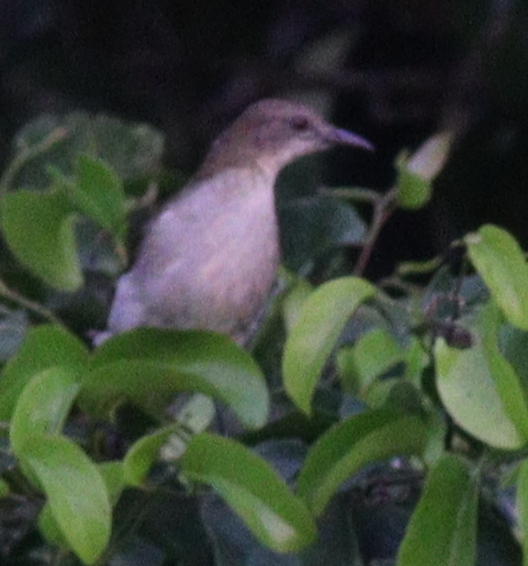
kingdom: Animalia
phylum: Chordata
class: Aves
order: Passeriformes
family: Pycnonotidae
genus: Stelgidillas
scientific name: Stelgidillas gracilirostris
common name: Slender-billed greenbul
